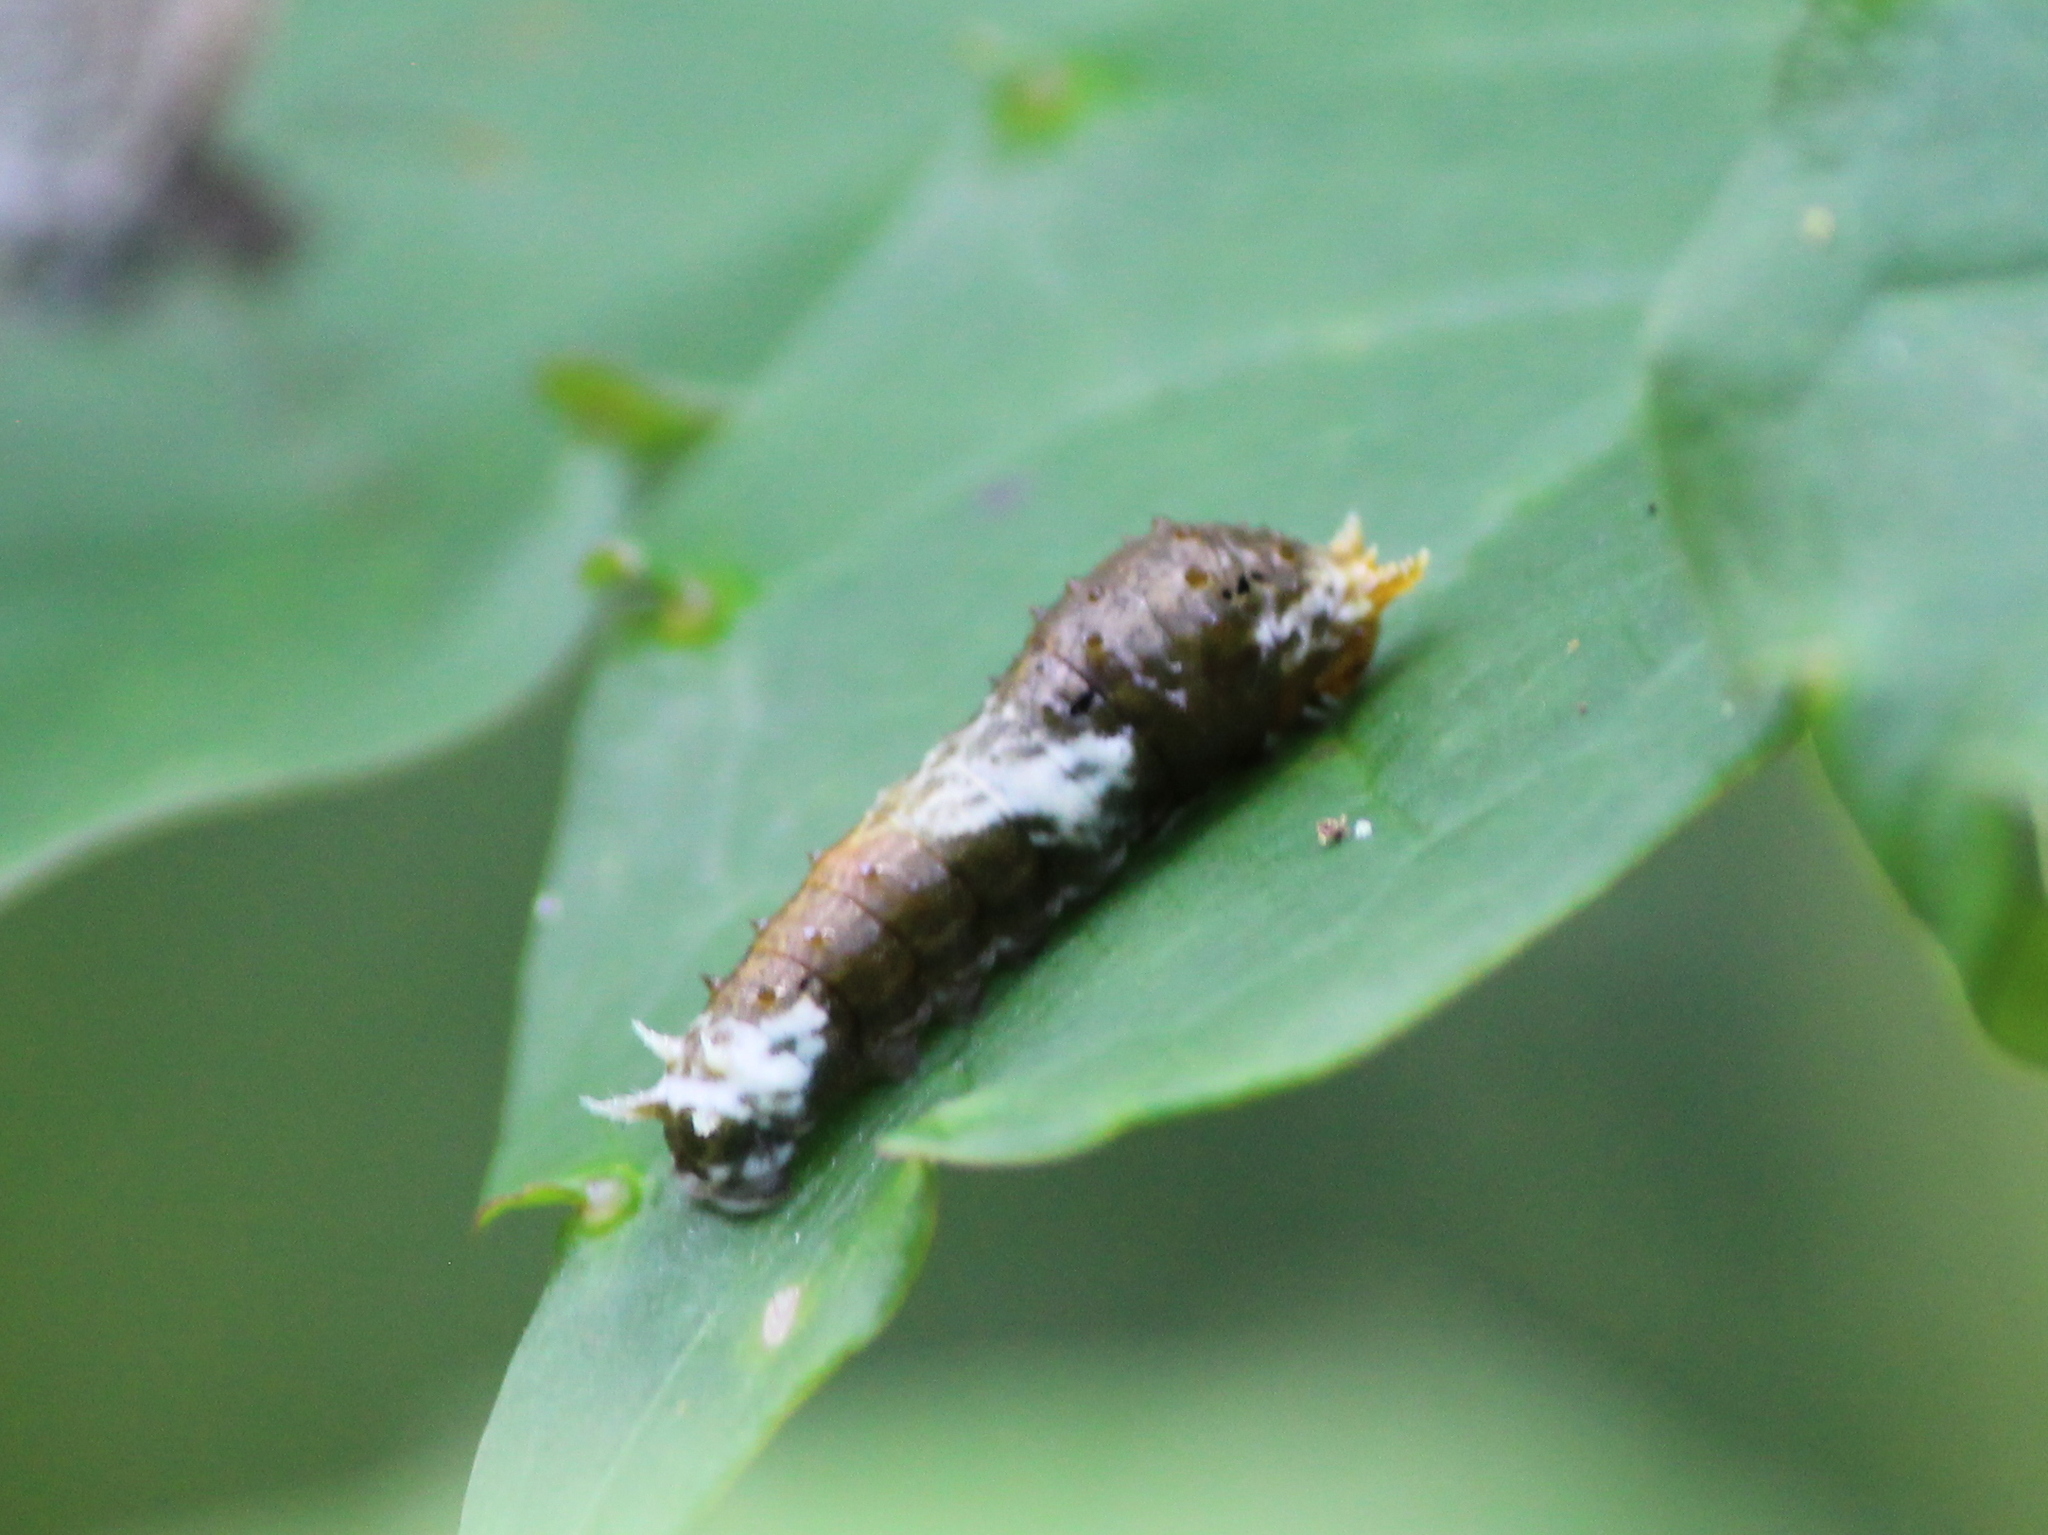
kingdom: Animalia
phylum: Arthropoda
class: Insecta
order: Lepidoptera
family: Papilionidae
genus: Papilio
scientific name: Papilio polytes
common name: Common mormon
